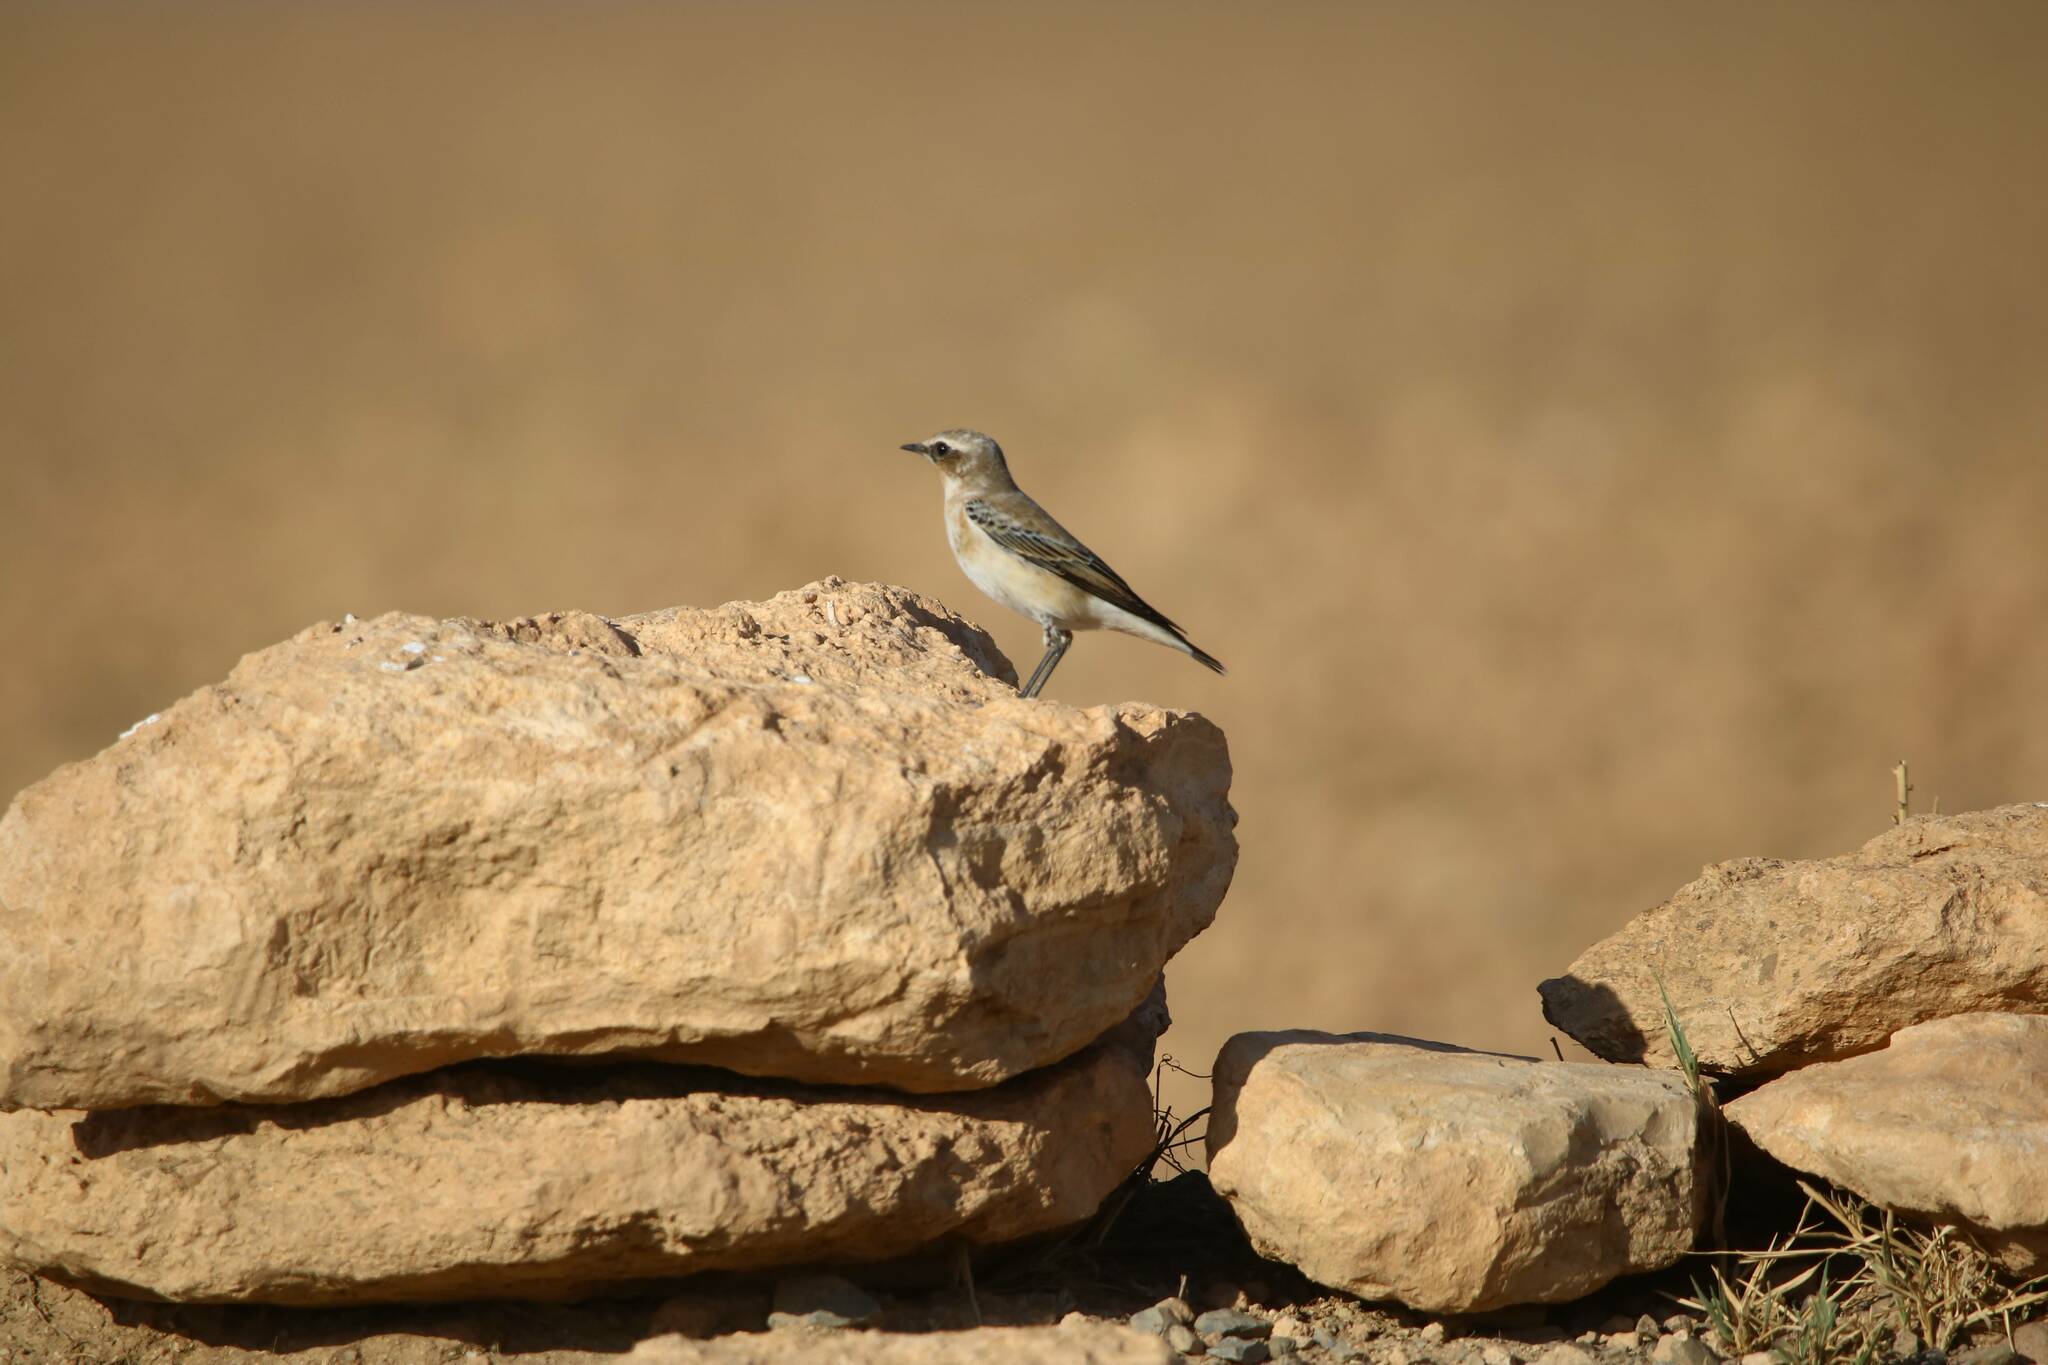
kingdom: Animalia
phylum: Chordata
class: Aves
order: Passeriformes
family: Muscicapidae
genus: Oenanthe
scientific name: Oenanthe oenanthe
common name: Northern wheatear
